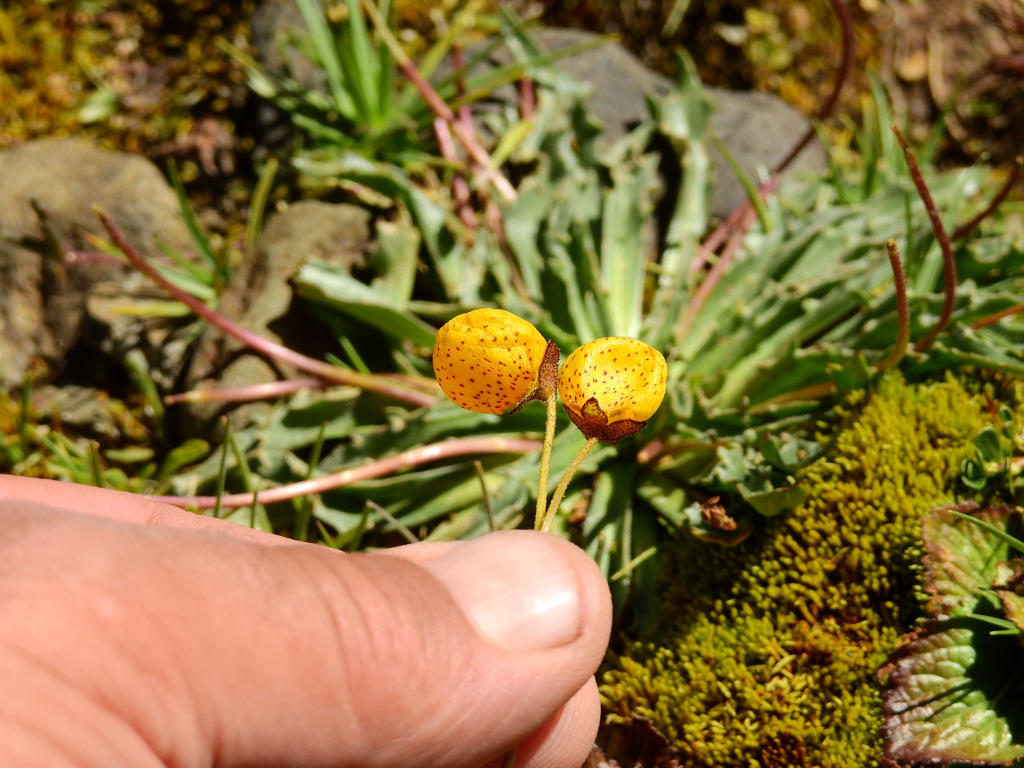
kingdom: Plantae
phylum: Tracheophyta
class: Magnoliopsida
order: Lamiales
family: Calceolariaceae
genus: Calceolaria
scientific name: Calceolaria filicaulis
